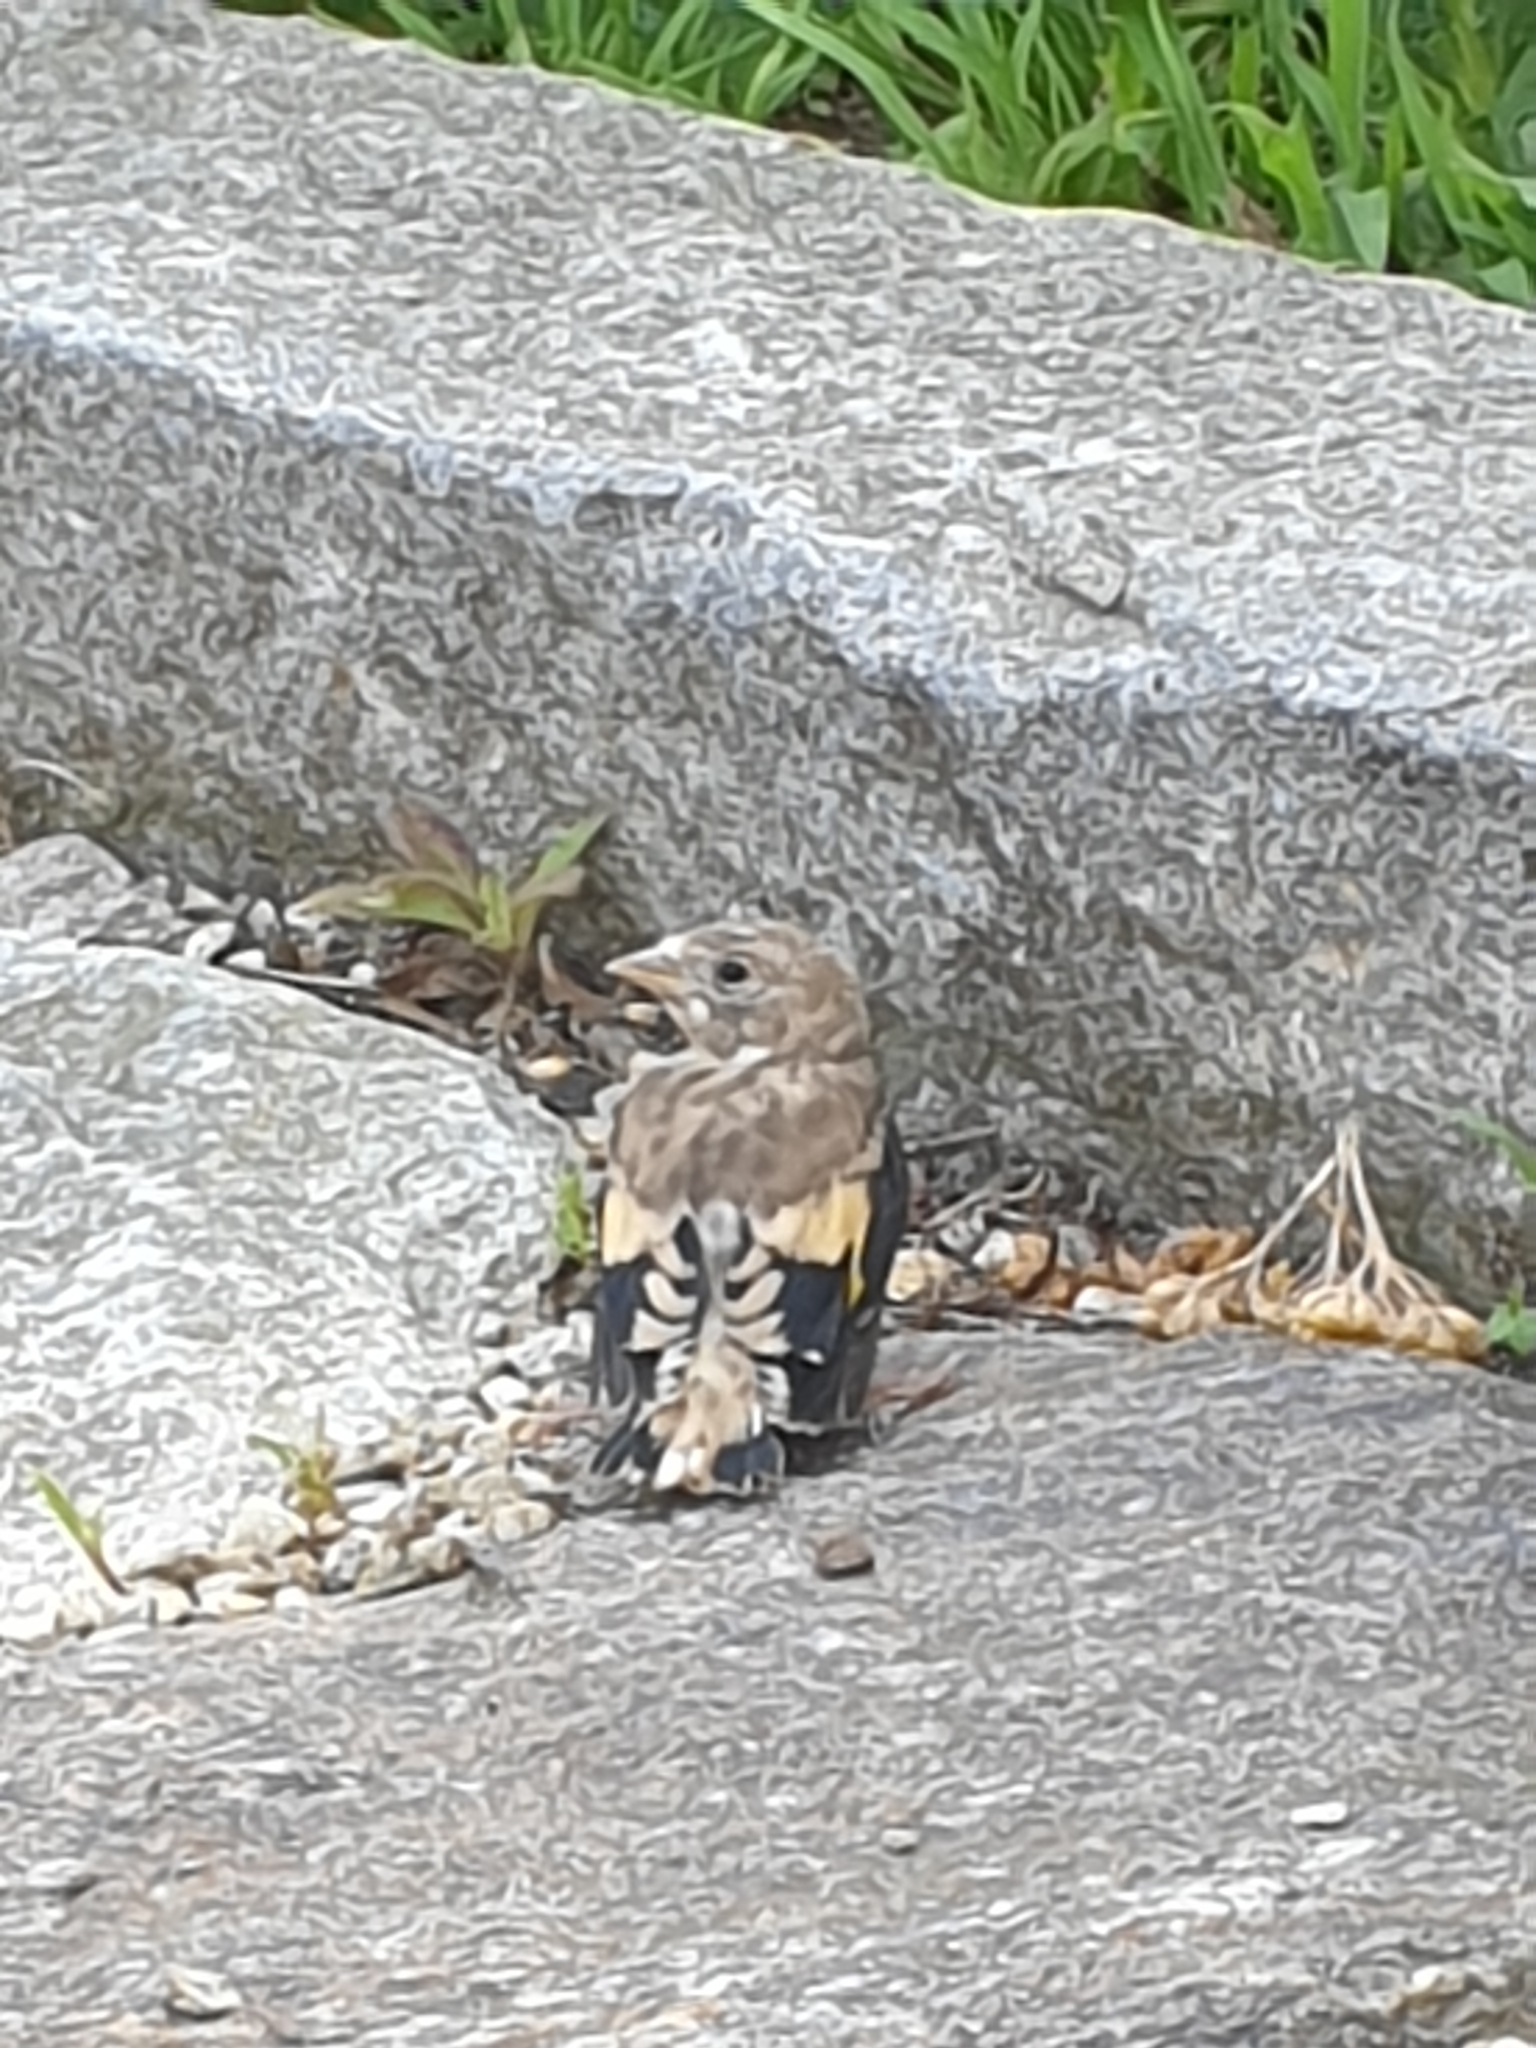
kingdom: Animalia
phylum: Chordata
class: Aves
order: Passeriformes
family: Fringillidae
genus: Carduelis
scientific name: Carduelis carduelis
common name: European goldfinch
